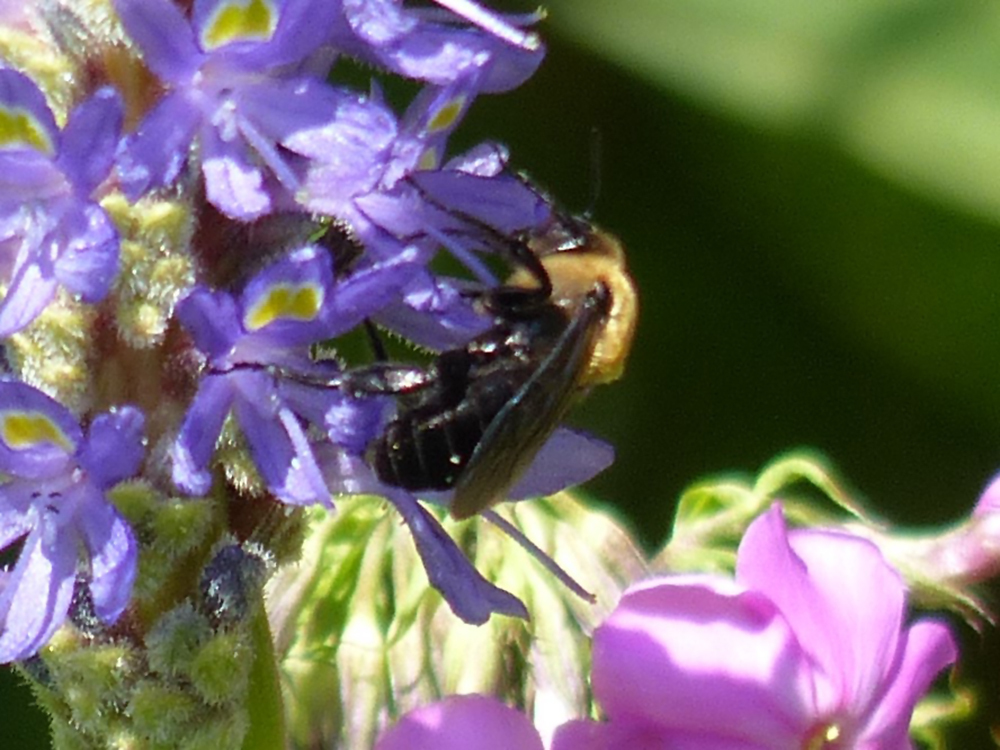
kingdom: Animalia
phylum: Arthropoda
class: Insecta
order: Hymenoptera
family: Apidae
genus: Xylocopa
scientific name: Xylocopa virginica
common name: Carpenter bee
